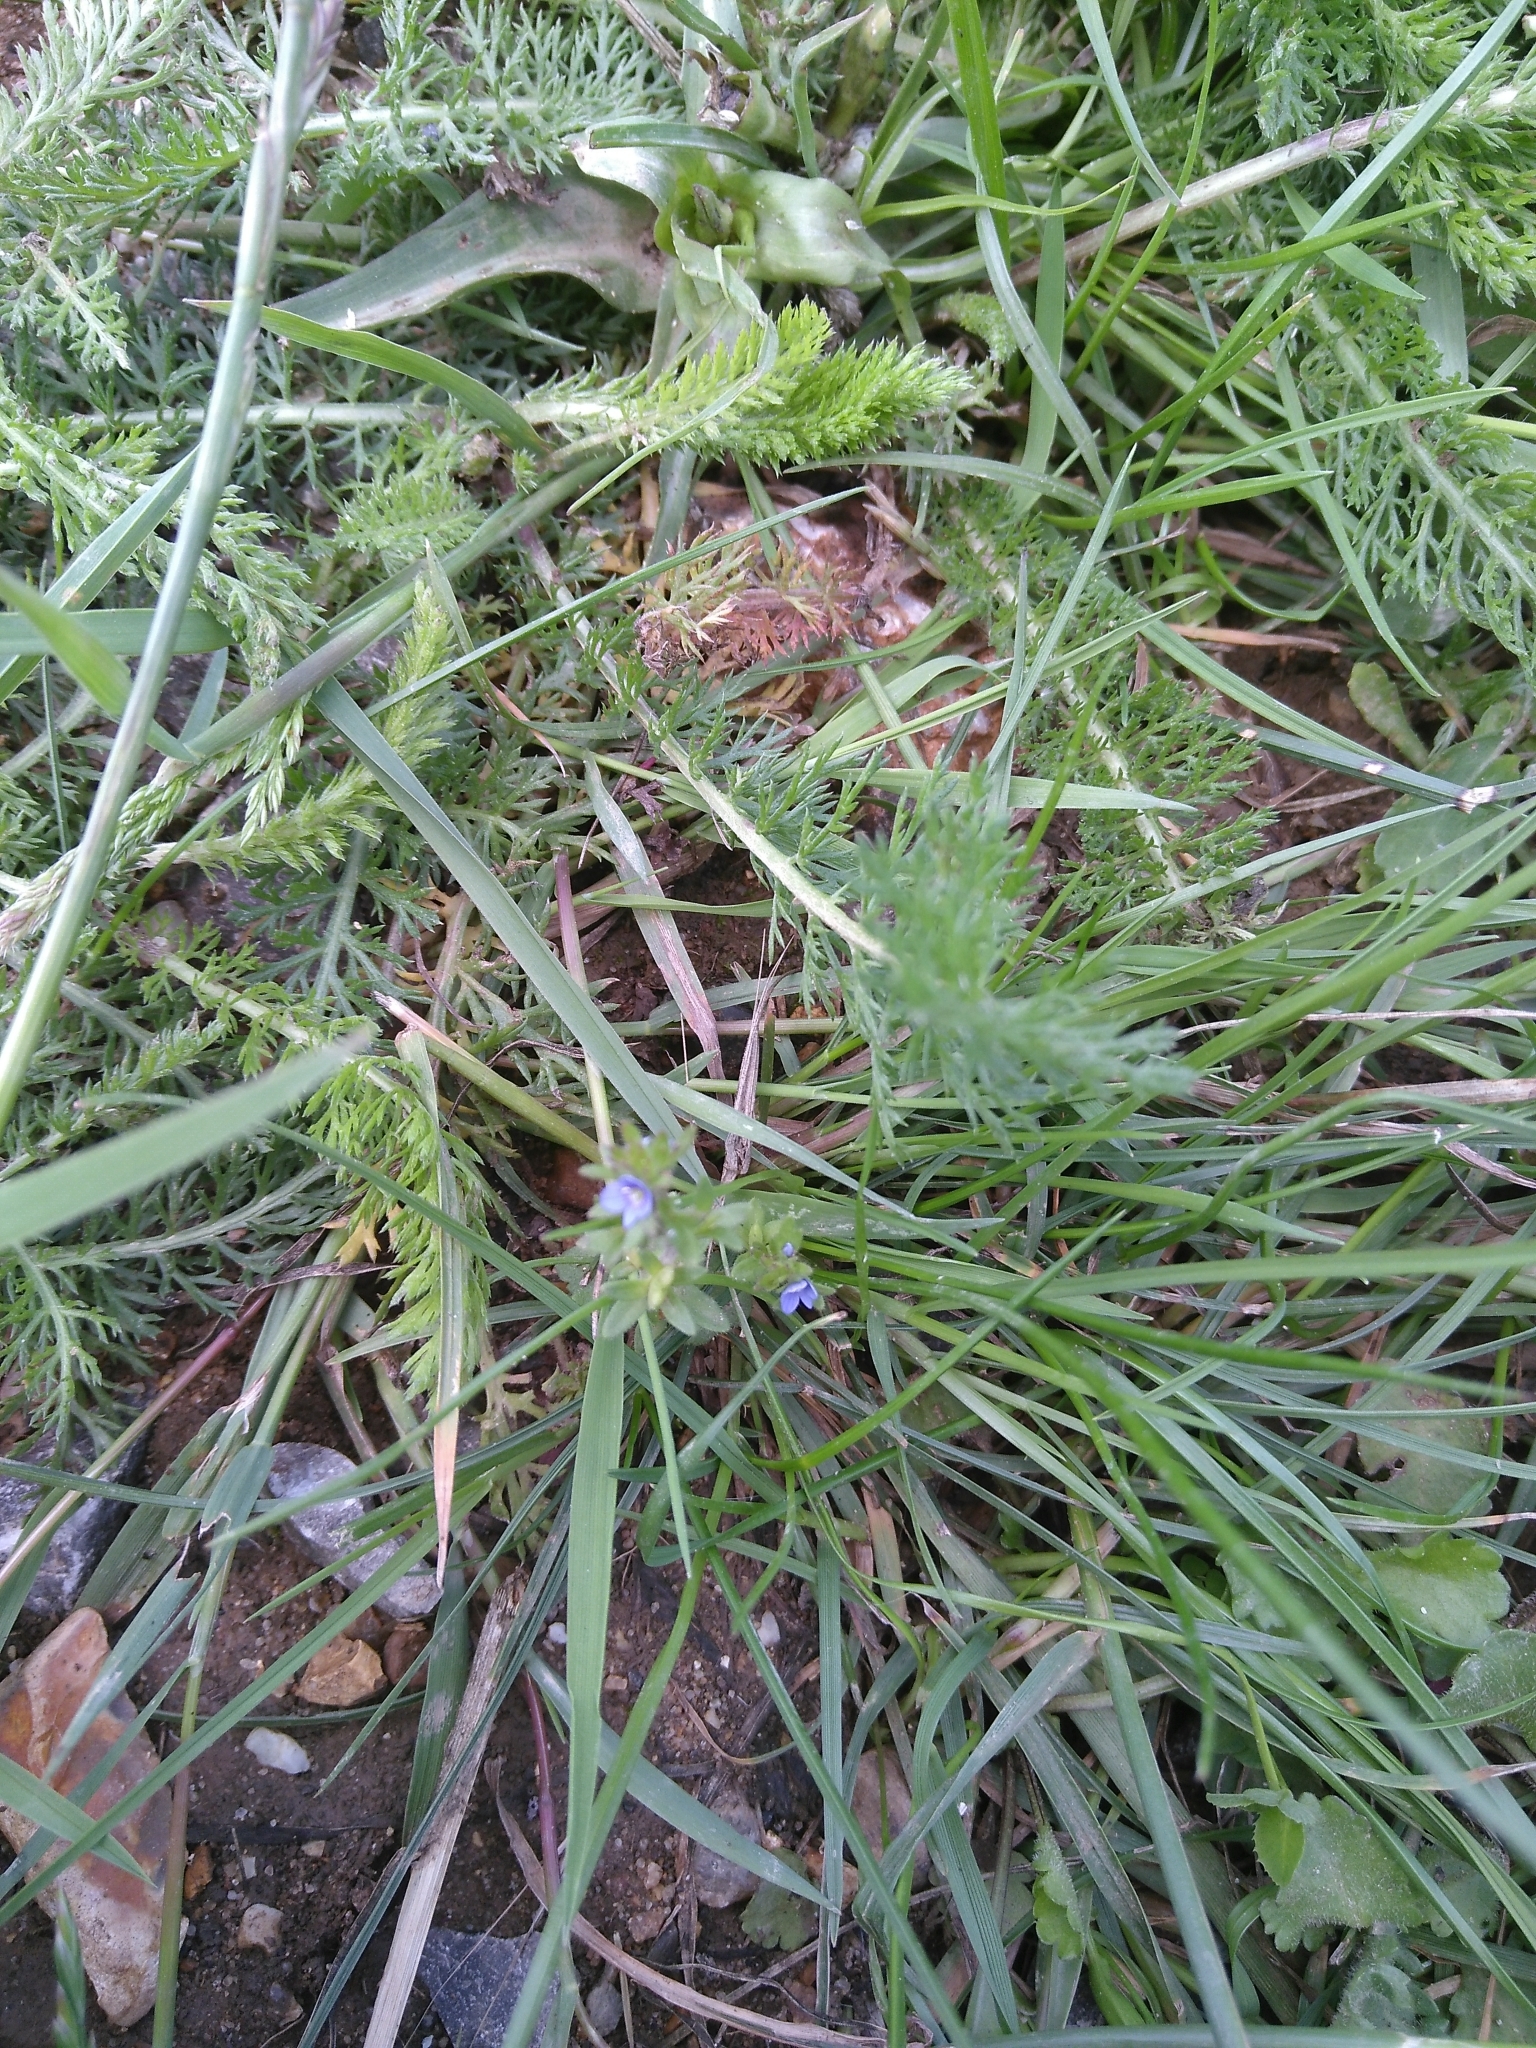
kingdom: Plantae
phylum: Tracheophyta
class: Magnoliopsida
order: Lamiales
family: Plantaginaceae
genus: Veronica
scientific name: Veronica arvensis
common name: Corn speedwell
